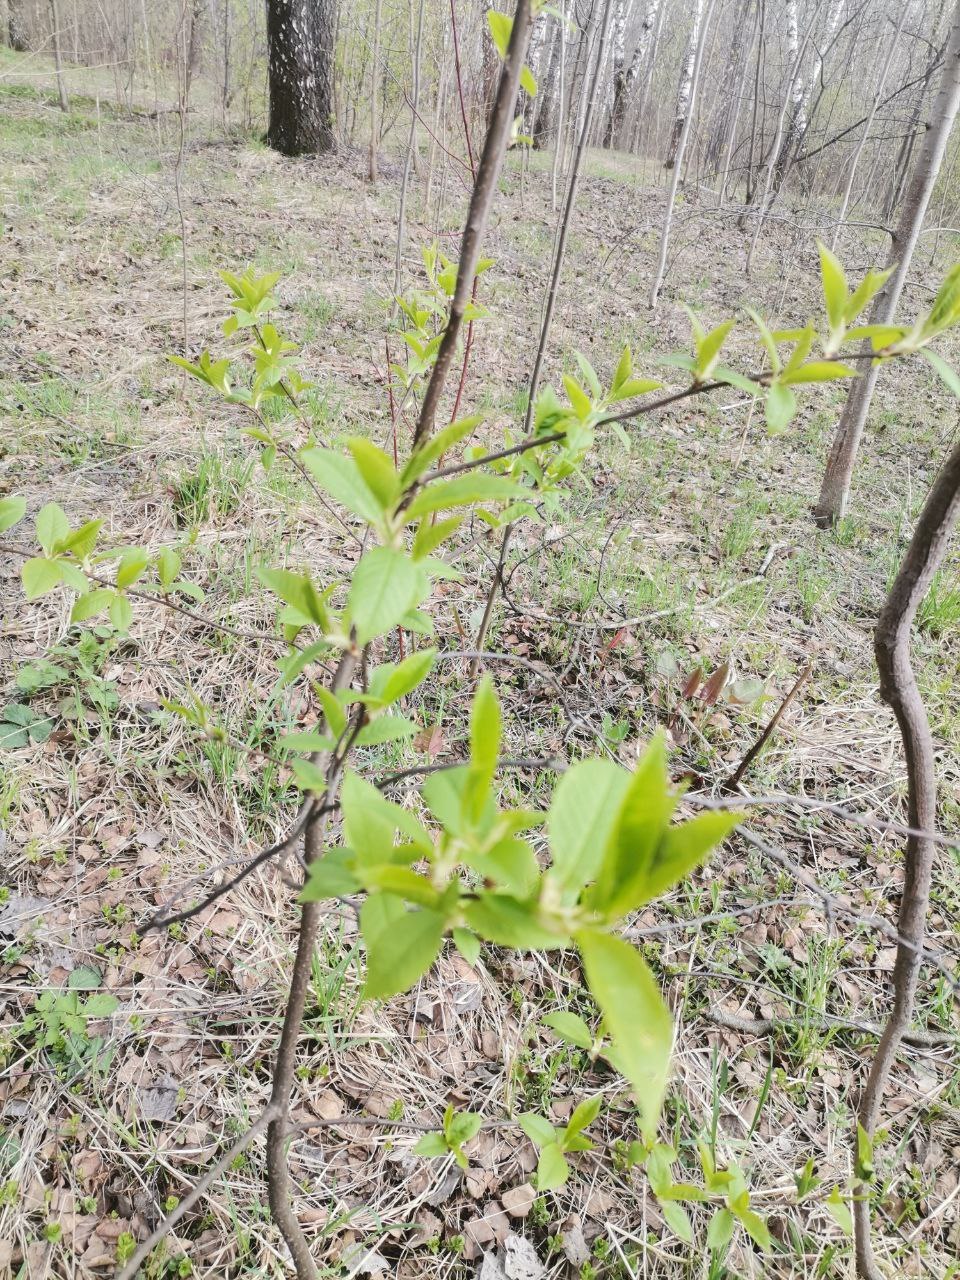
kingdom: Plantae
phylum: Tracheophyta
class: Magnoliopsida
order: Rosales
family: Rosaceae
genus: Prunus
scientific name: Prunus padus
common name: Bird cherry
